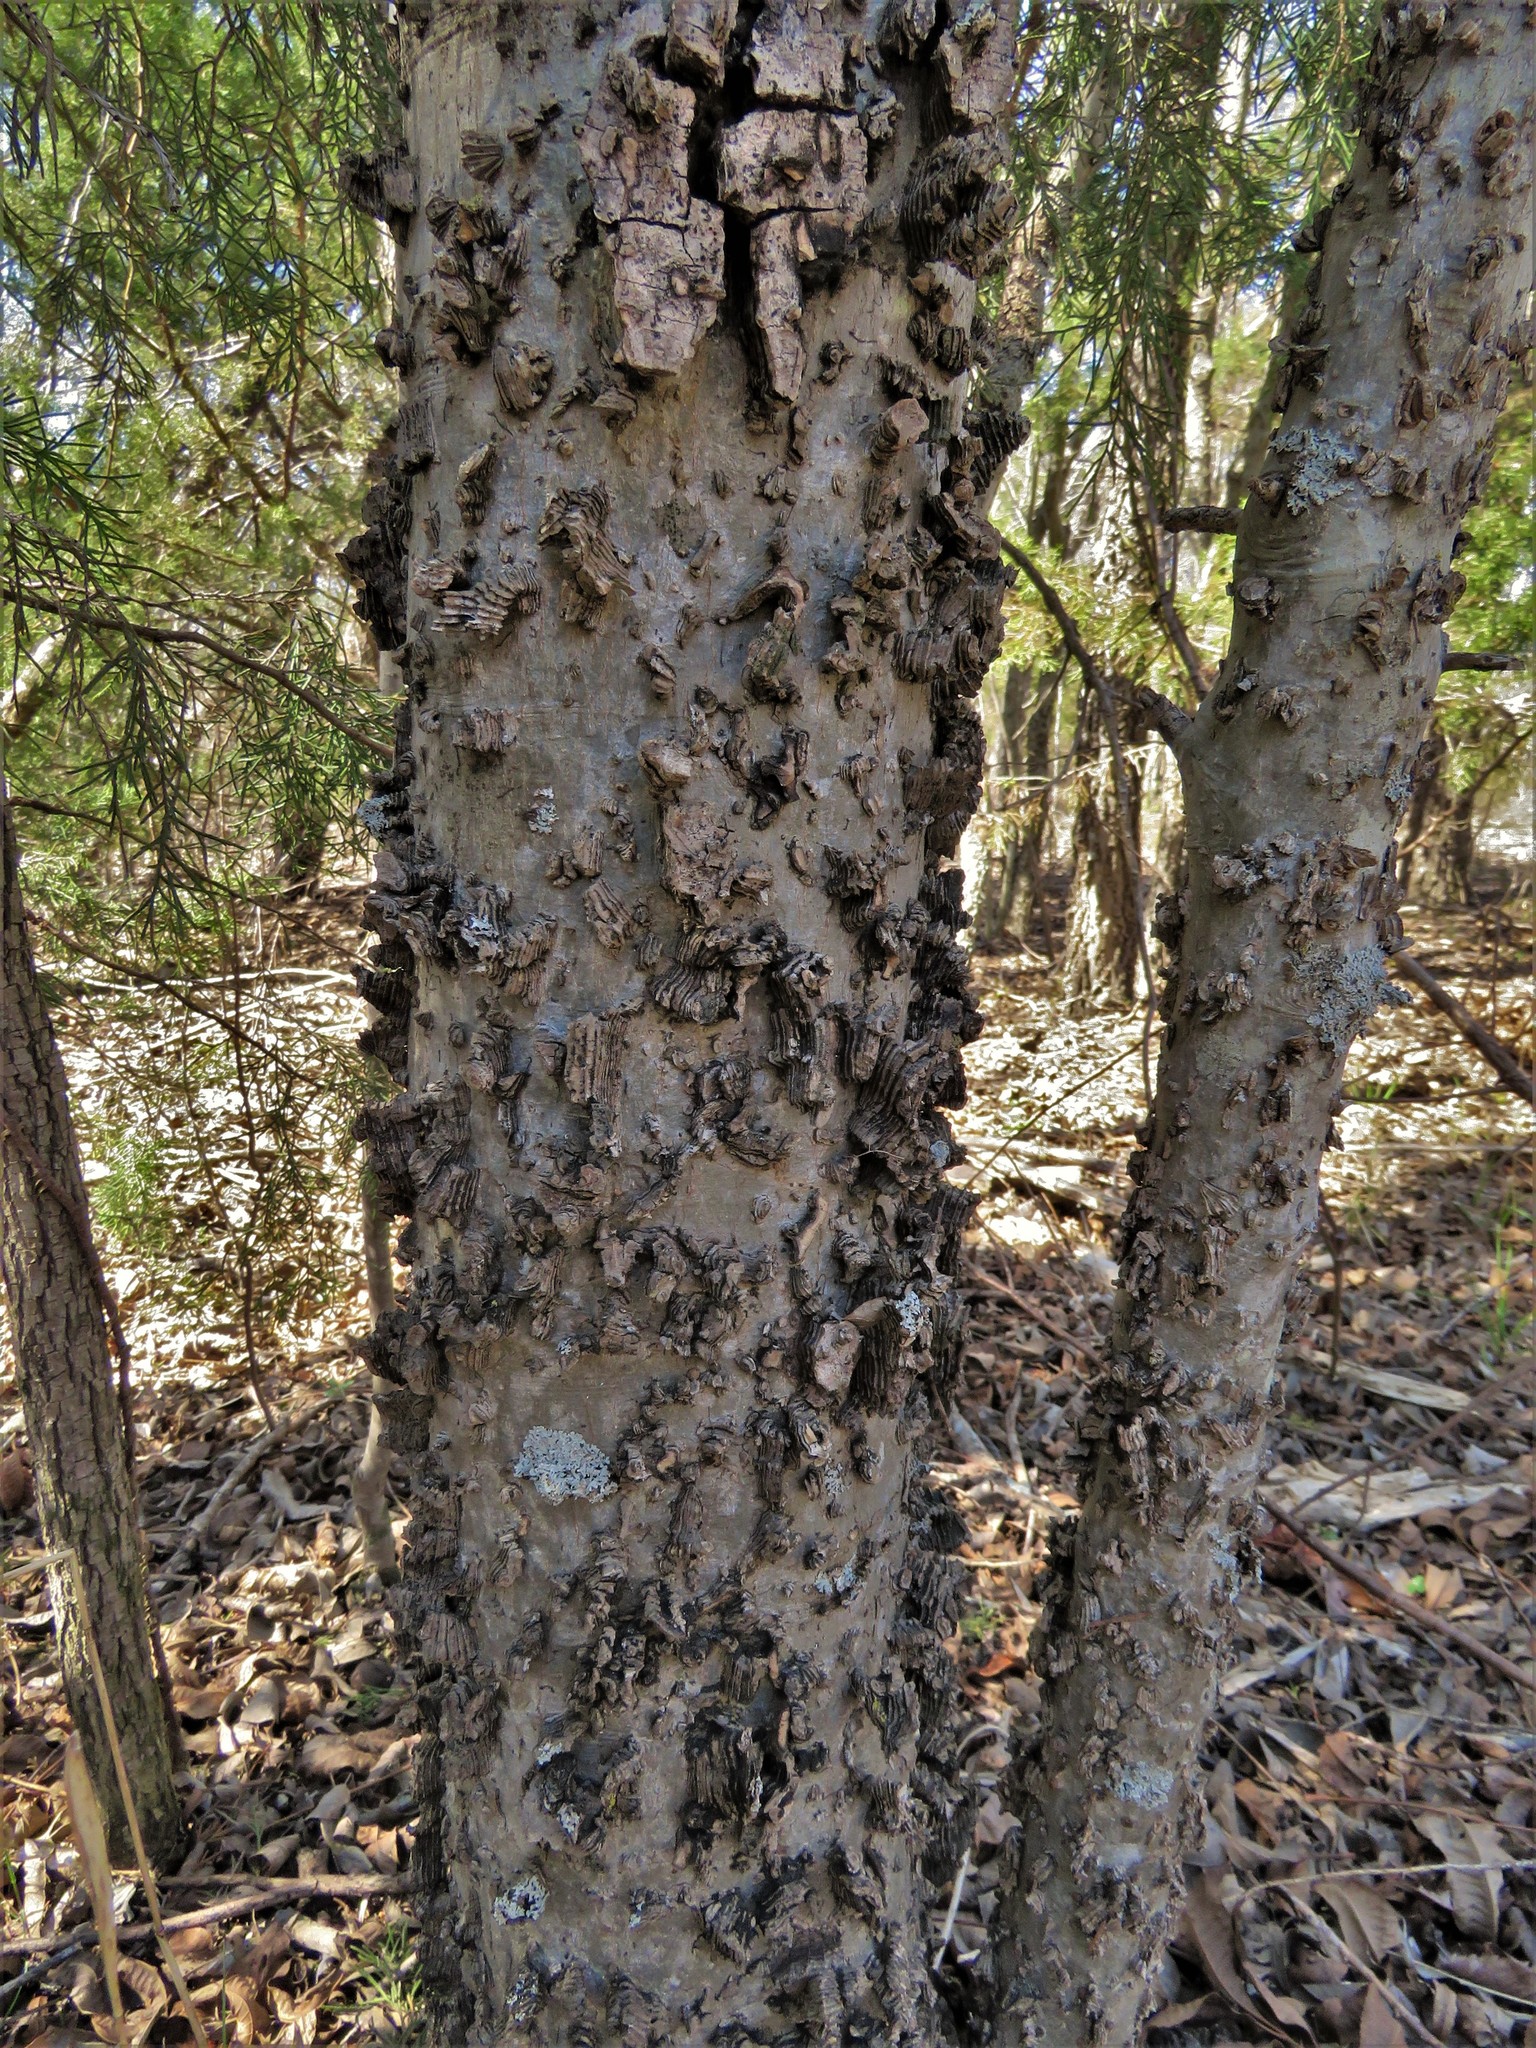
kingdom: Plantae
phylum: Tracheophyta
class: Magnoliopsida
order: Rosales
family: Cannabaceae
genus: Celtis
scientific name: Celtis laevigata
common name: Sugarberry
